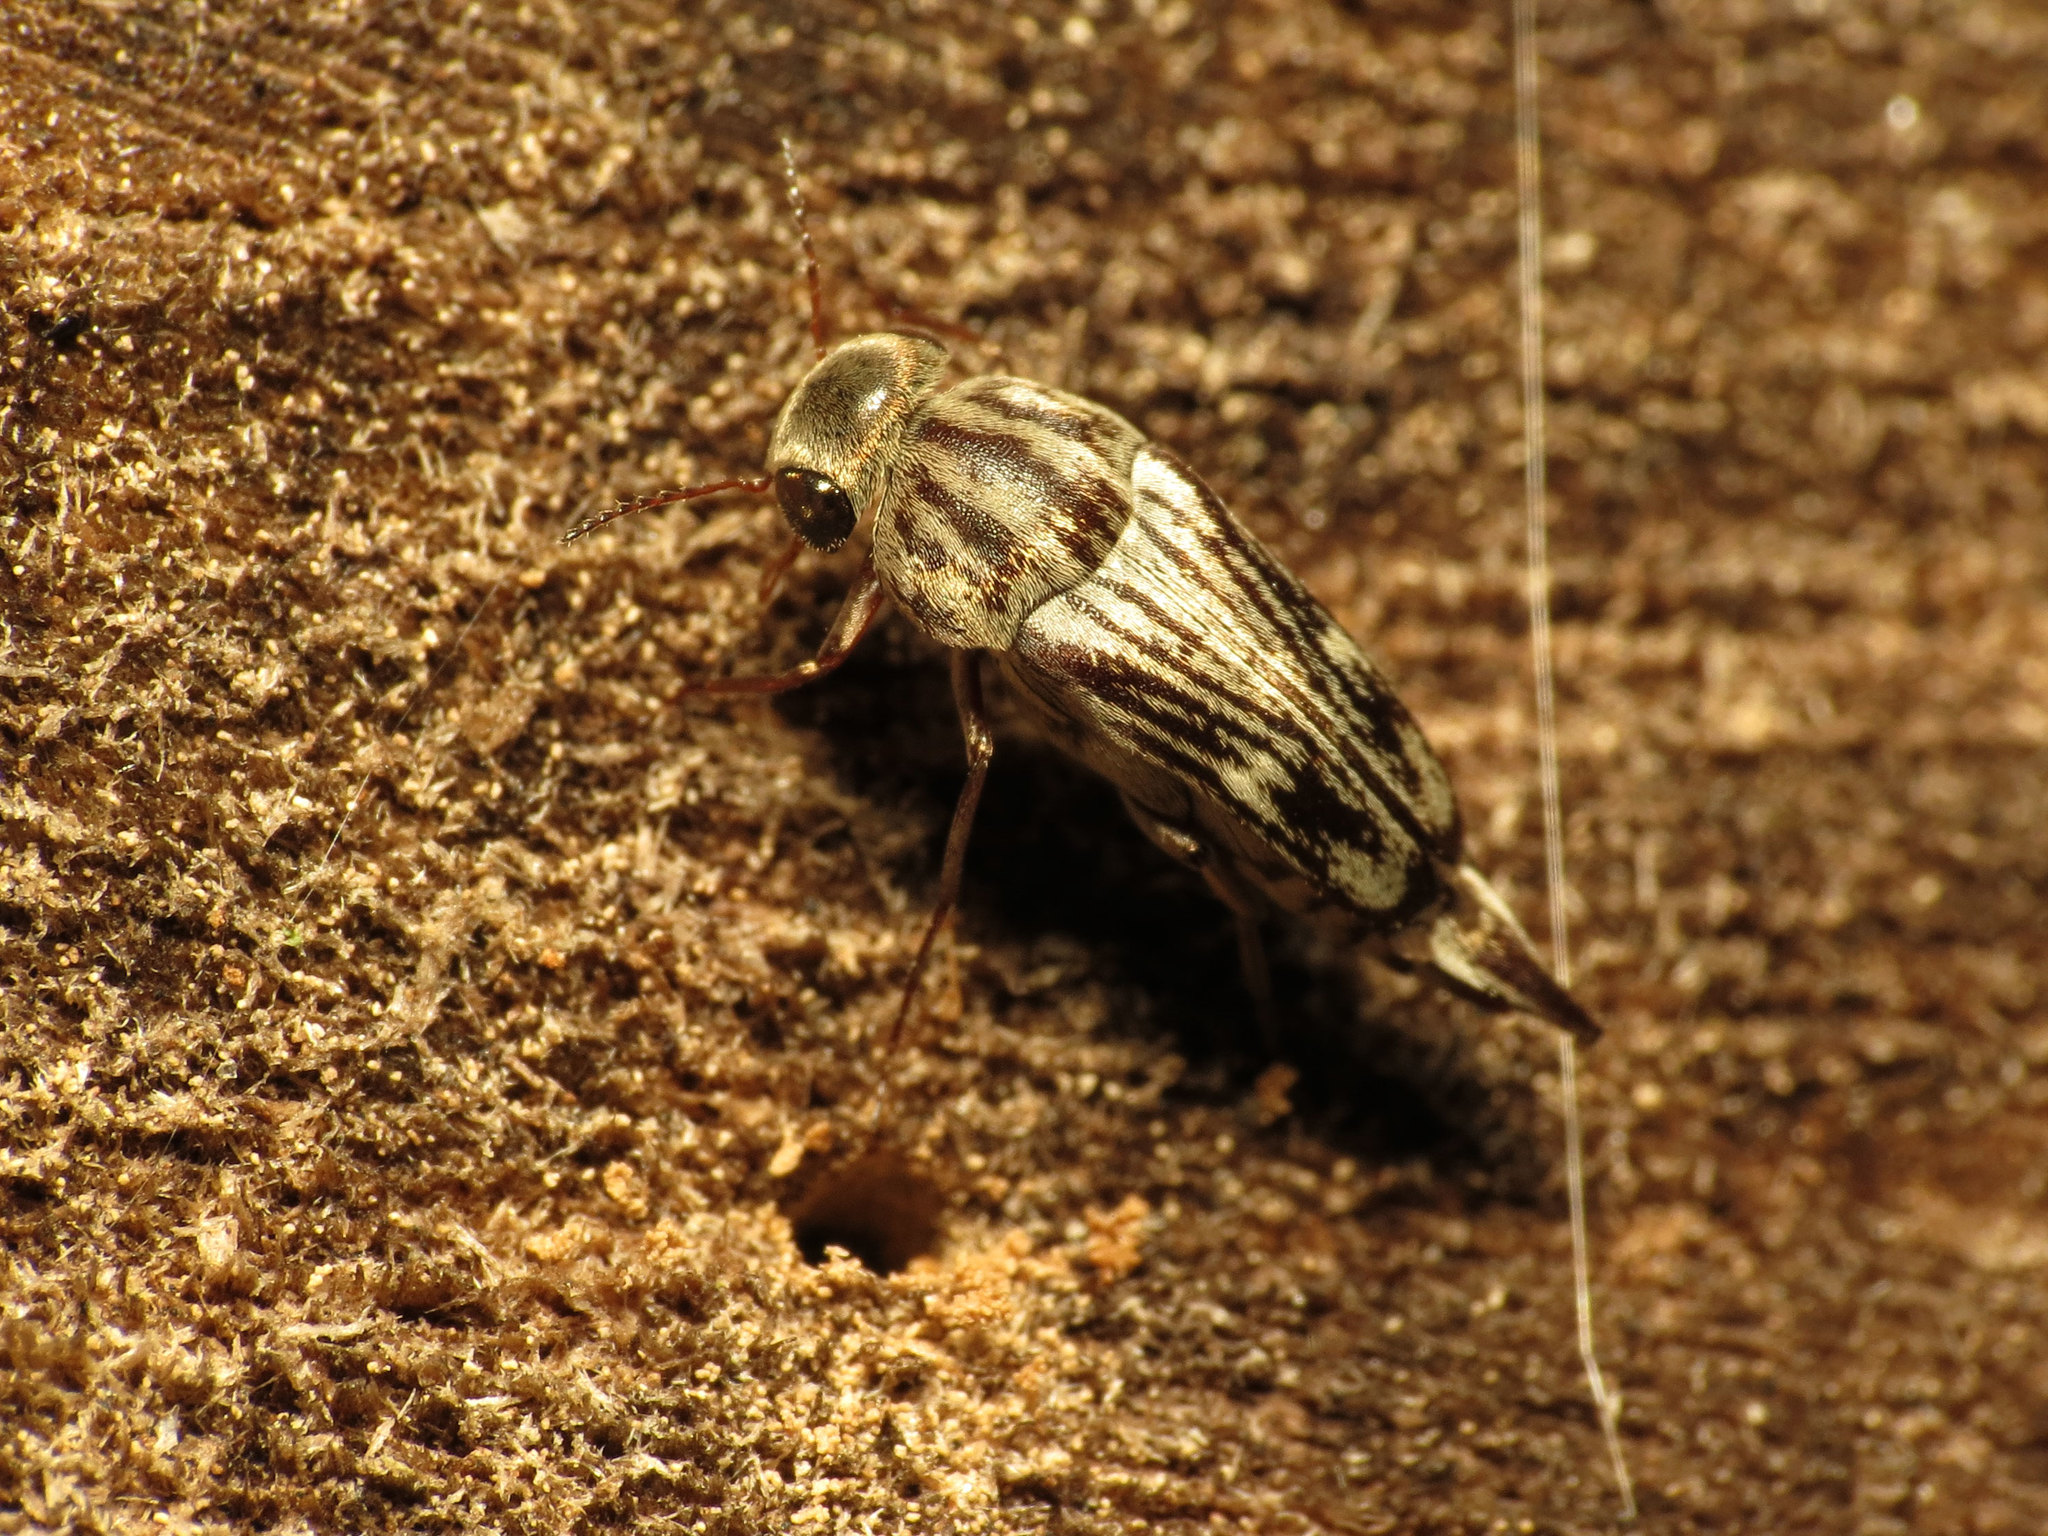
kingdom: Animalia
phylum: Arthropoda
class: Insecta
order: Coleoptera
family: Mordellidae
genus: Tomoxia
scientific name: Tomoxia lineella
